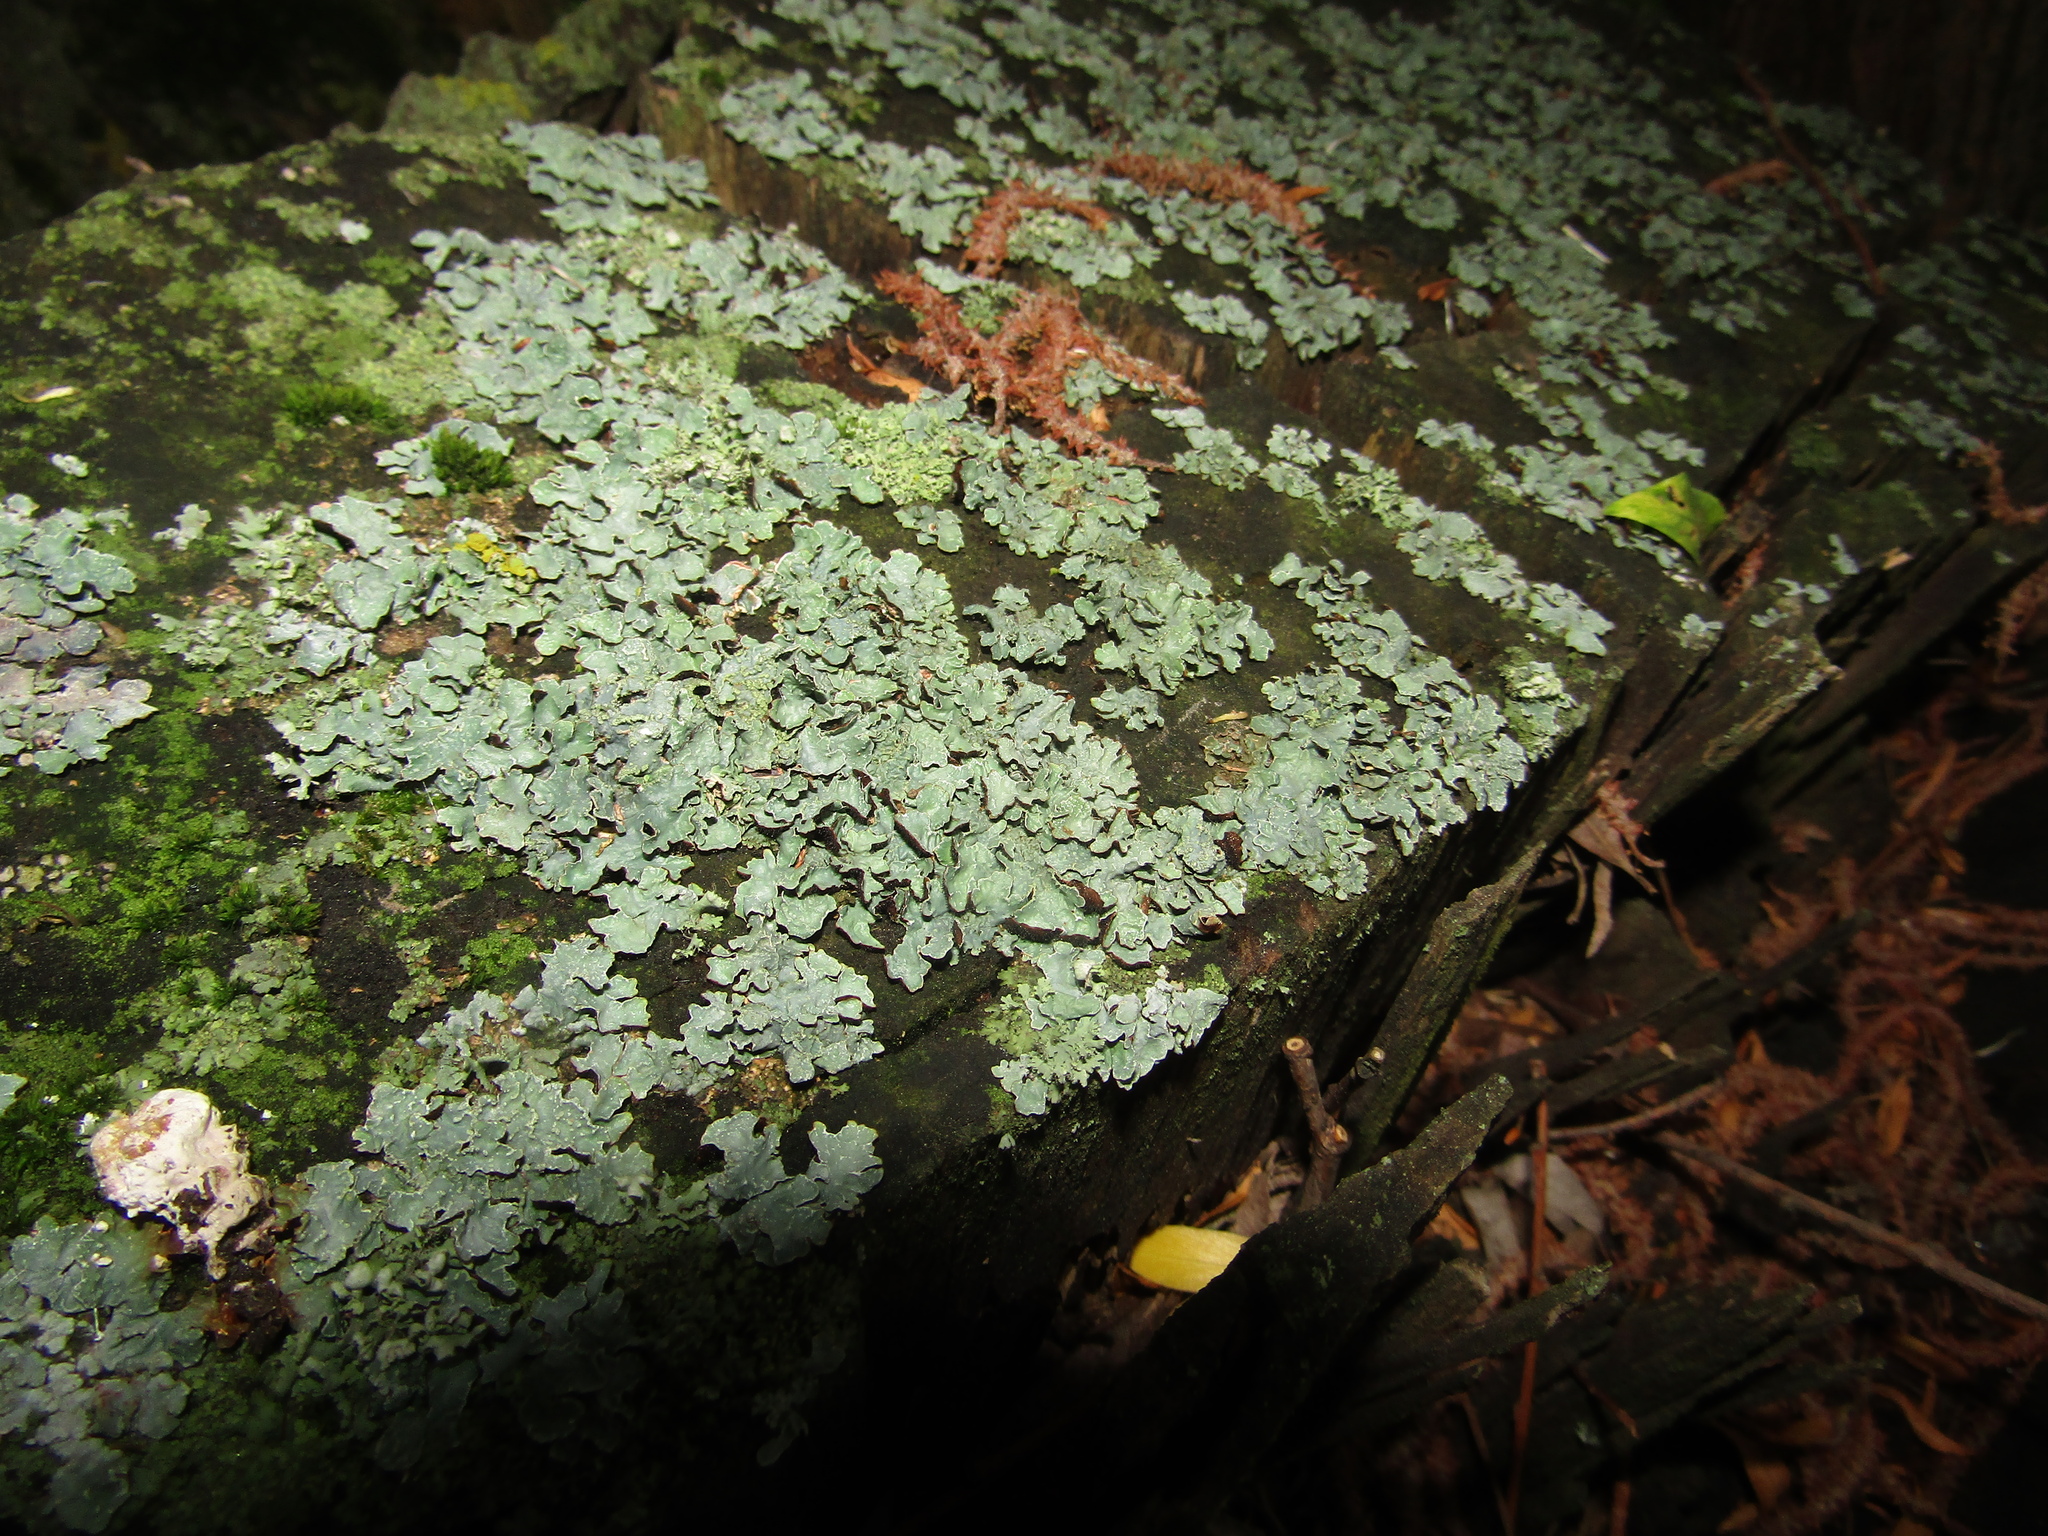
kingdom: Fungi
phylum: Ascomycota
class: Lecanoromycetes
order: Lecanorales
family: Parmeliaceae
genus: Parmelia
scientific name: Parmelia sulcata
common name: Netted shield lichen
